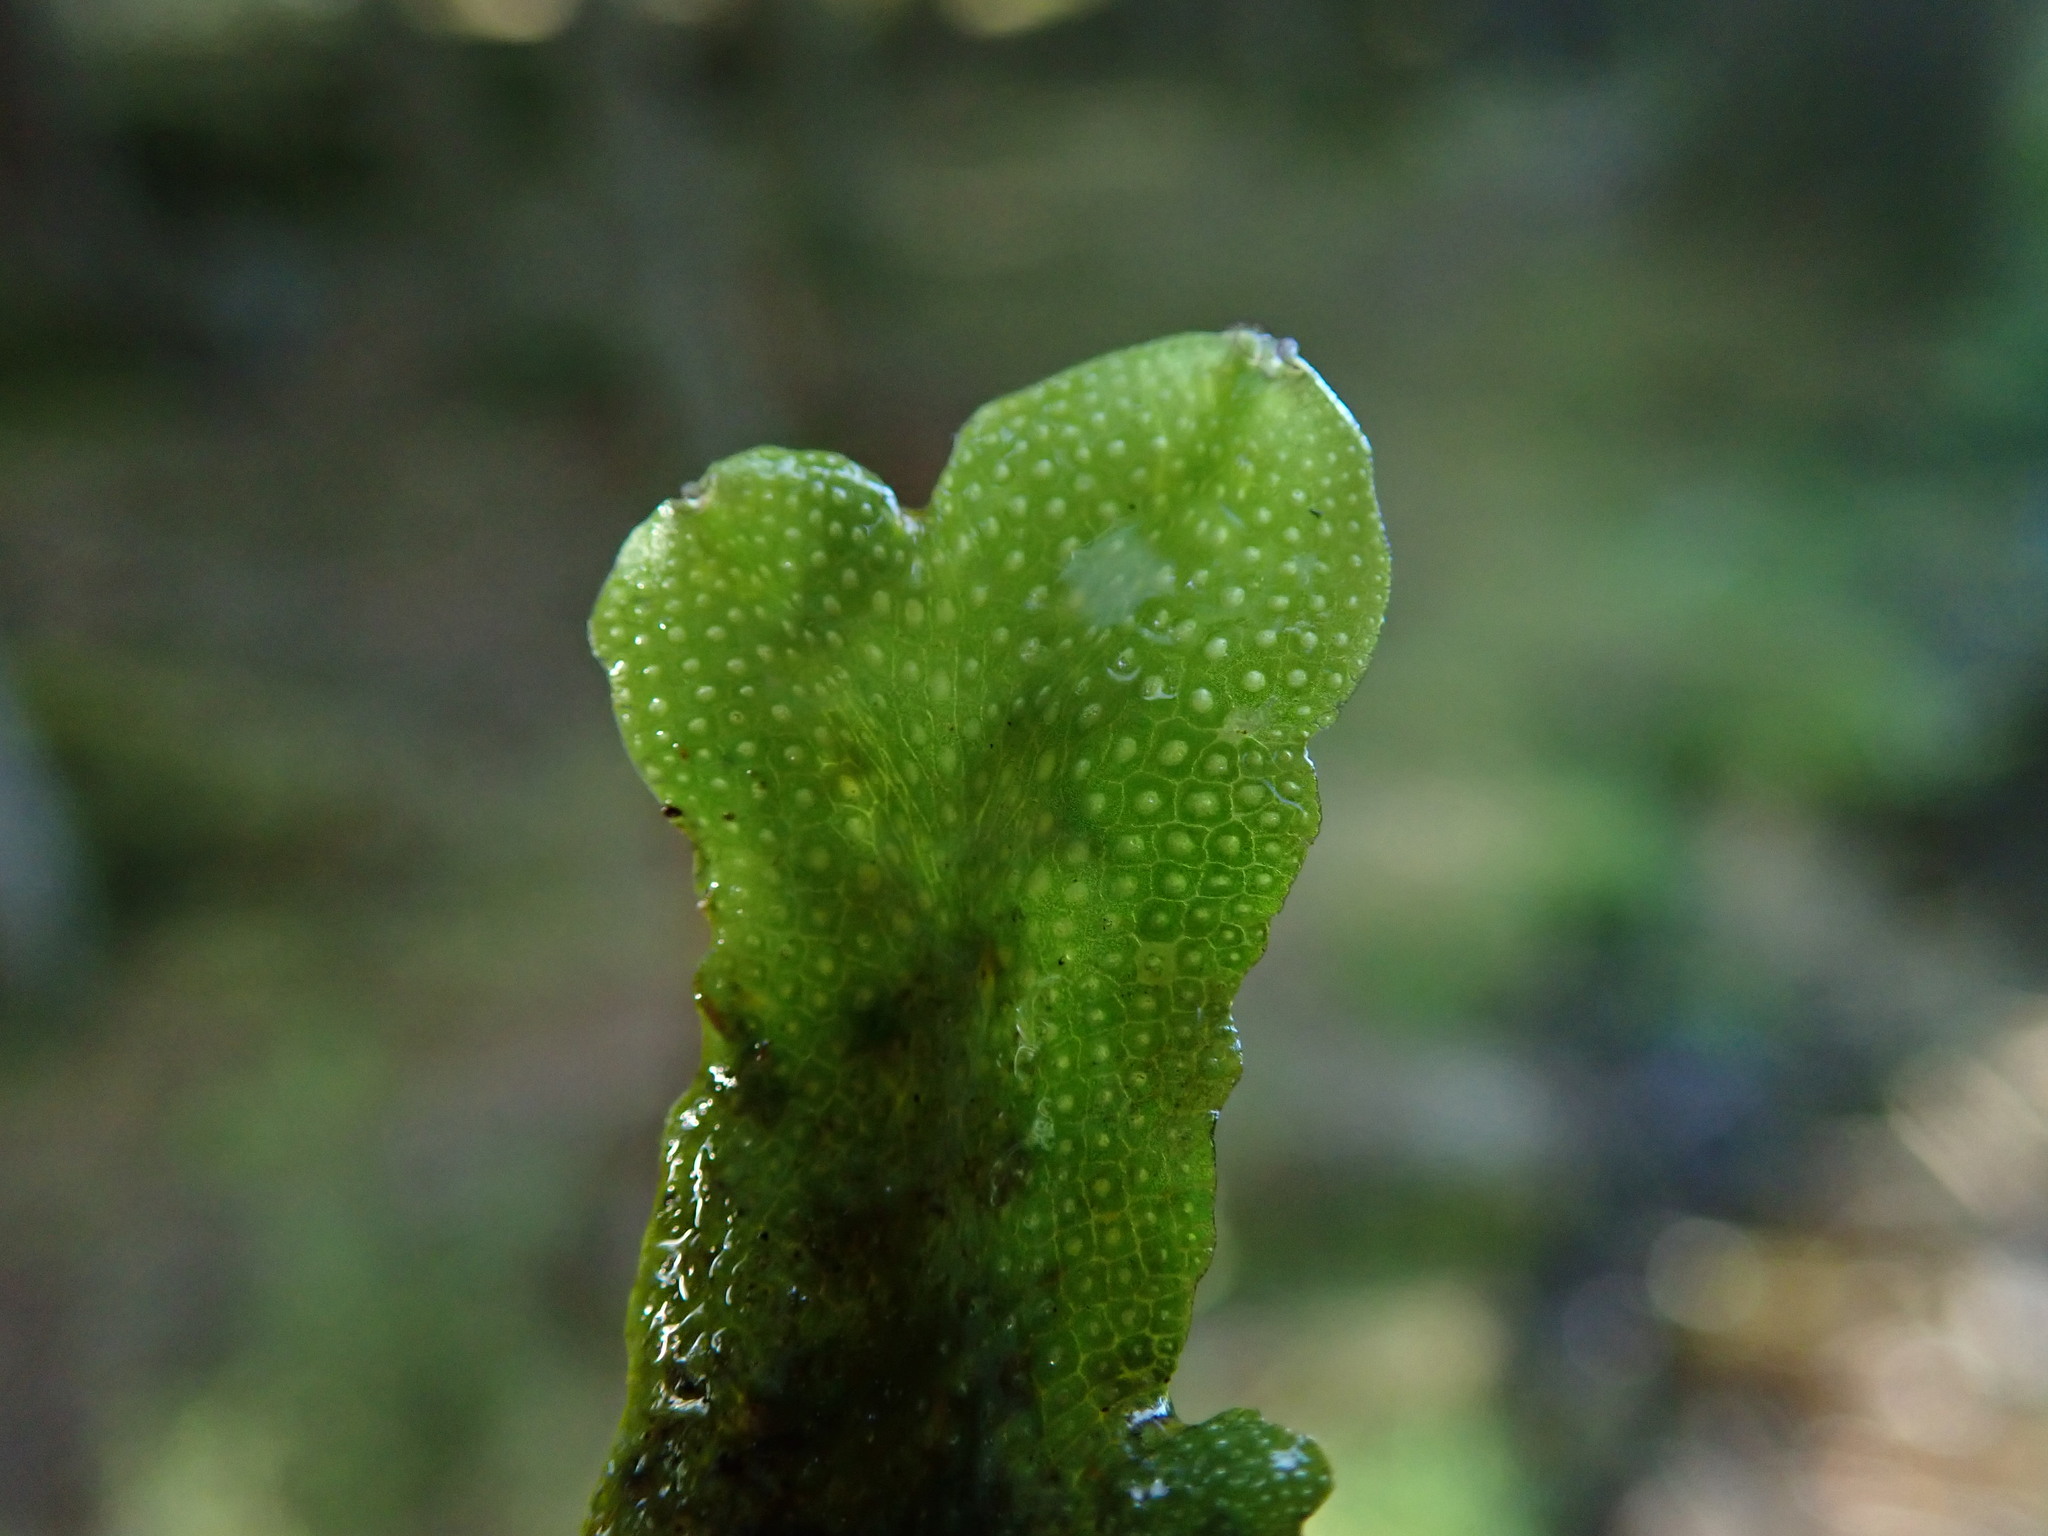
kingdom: Plantae
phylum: Marchantiophyta
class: Marchantiopsida
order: Marchantiales
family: Conocephalaceae
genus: Conocephalum
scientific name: Conocephalum salebrosum
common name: Cat-tongue liverwort
